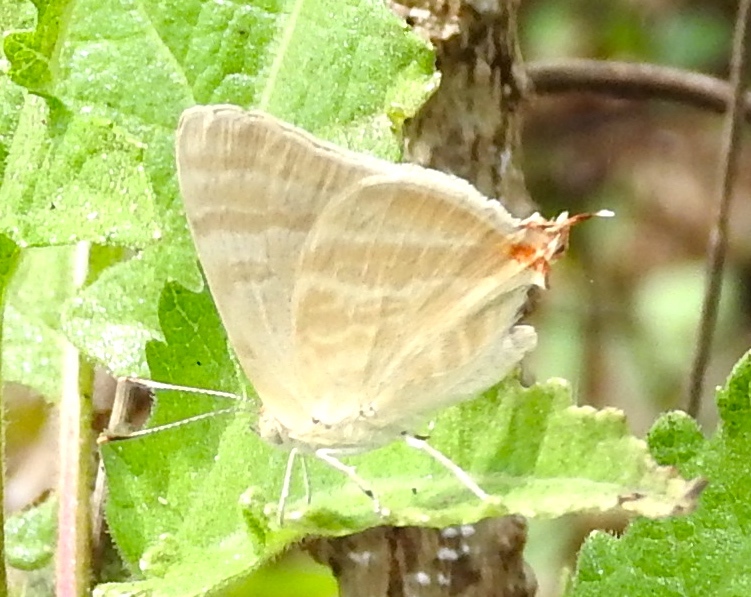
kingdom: Animalia
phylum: Arthropoda
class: Insecta
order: Lepidoptera
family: Lycaenidae
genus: Dolymorpha
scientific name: Dolymorpha jada
